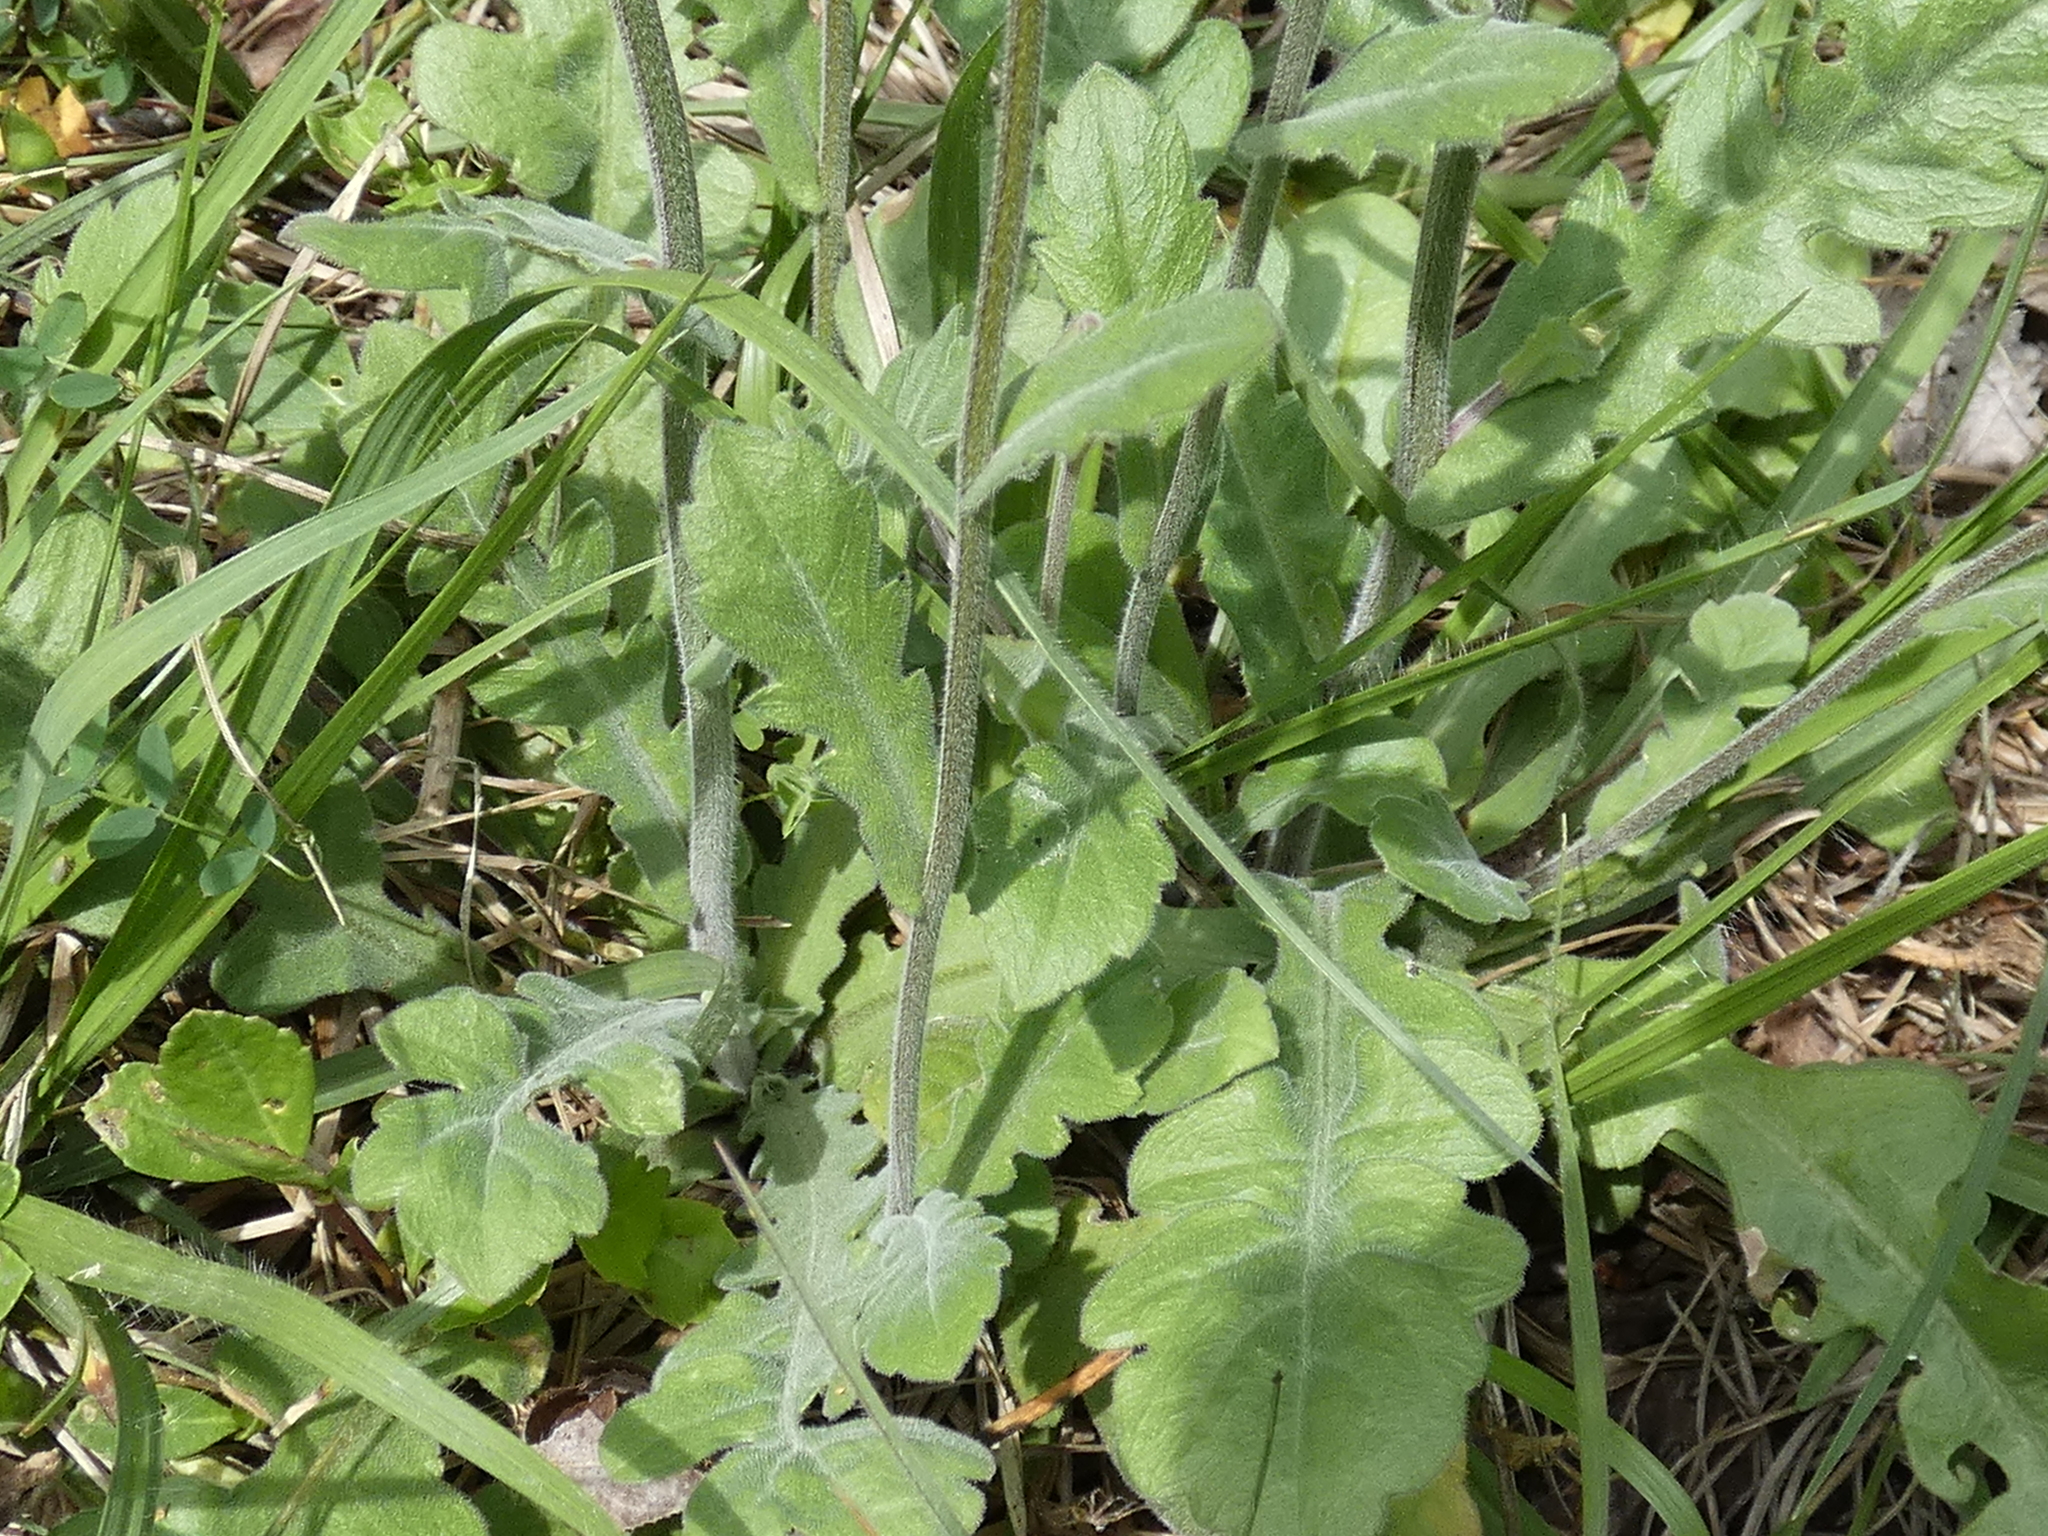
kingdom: Plantae
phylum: Tracheophyta
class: Magnoliopsida
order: Asterales
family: Asteraceae
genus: Erigeron
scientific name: Erigeron quercifolius
